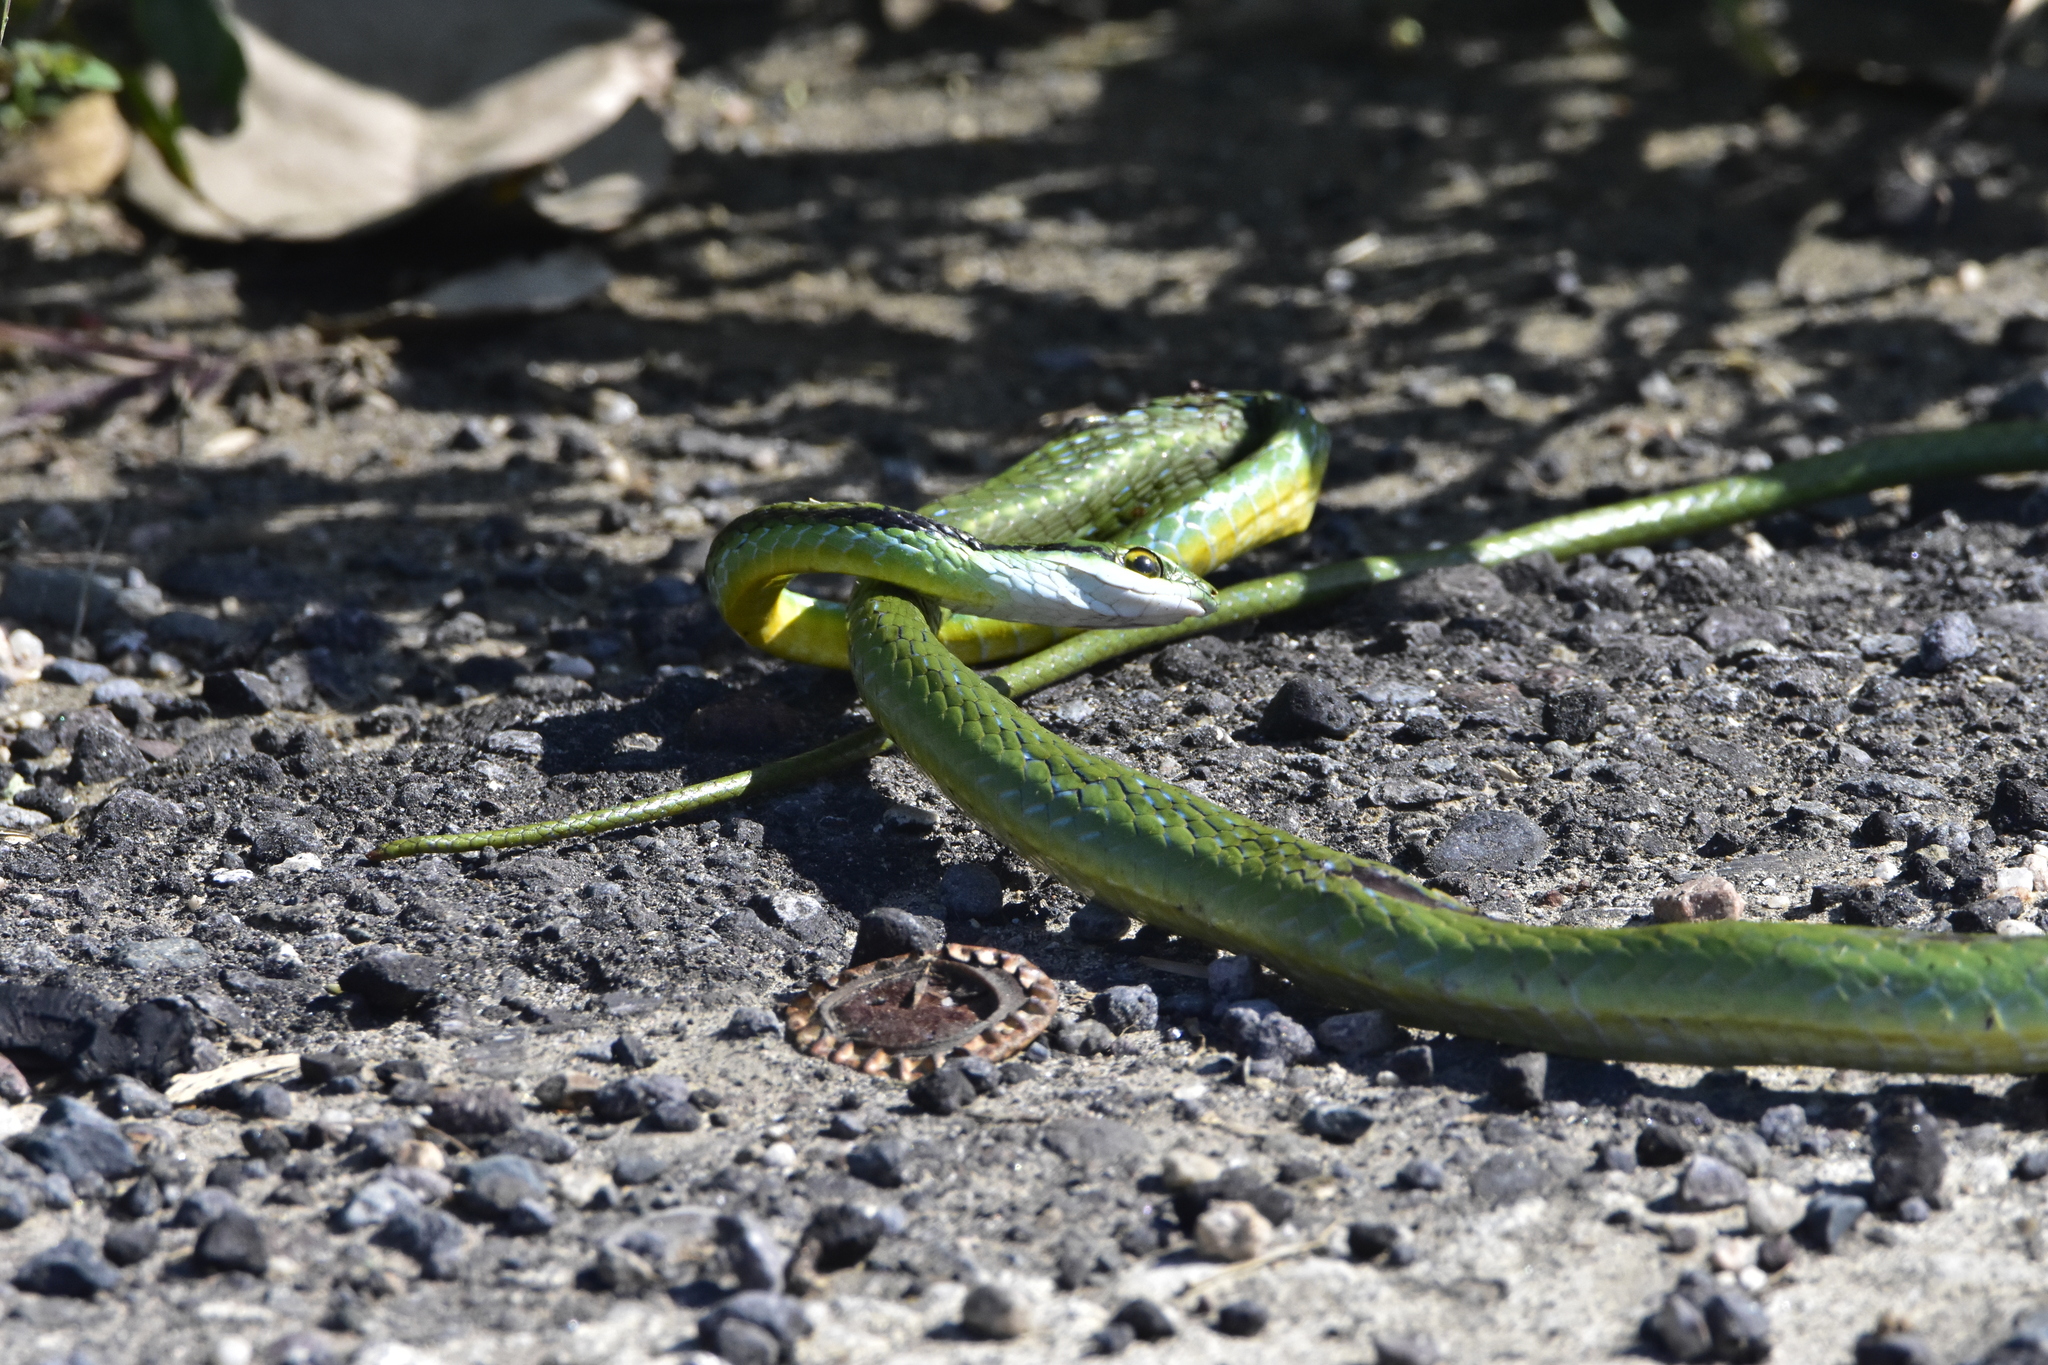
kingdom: Animalia
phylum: Chordata
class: Squamata
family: Colubridae
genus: Leptophis
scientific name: Leptophis diplotropis
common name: Pacific coast parrot snake
